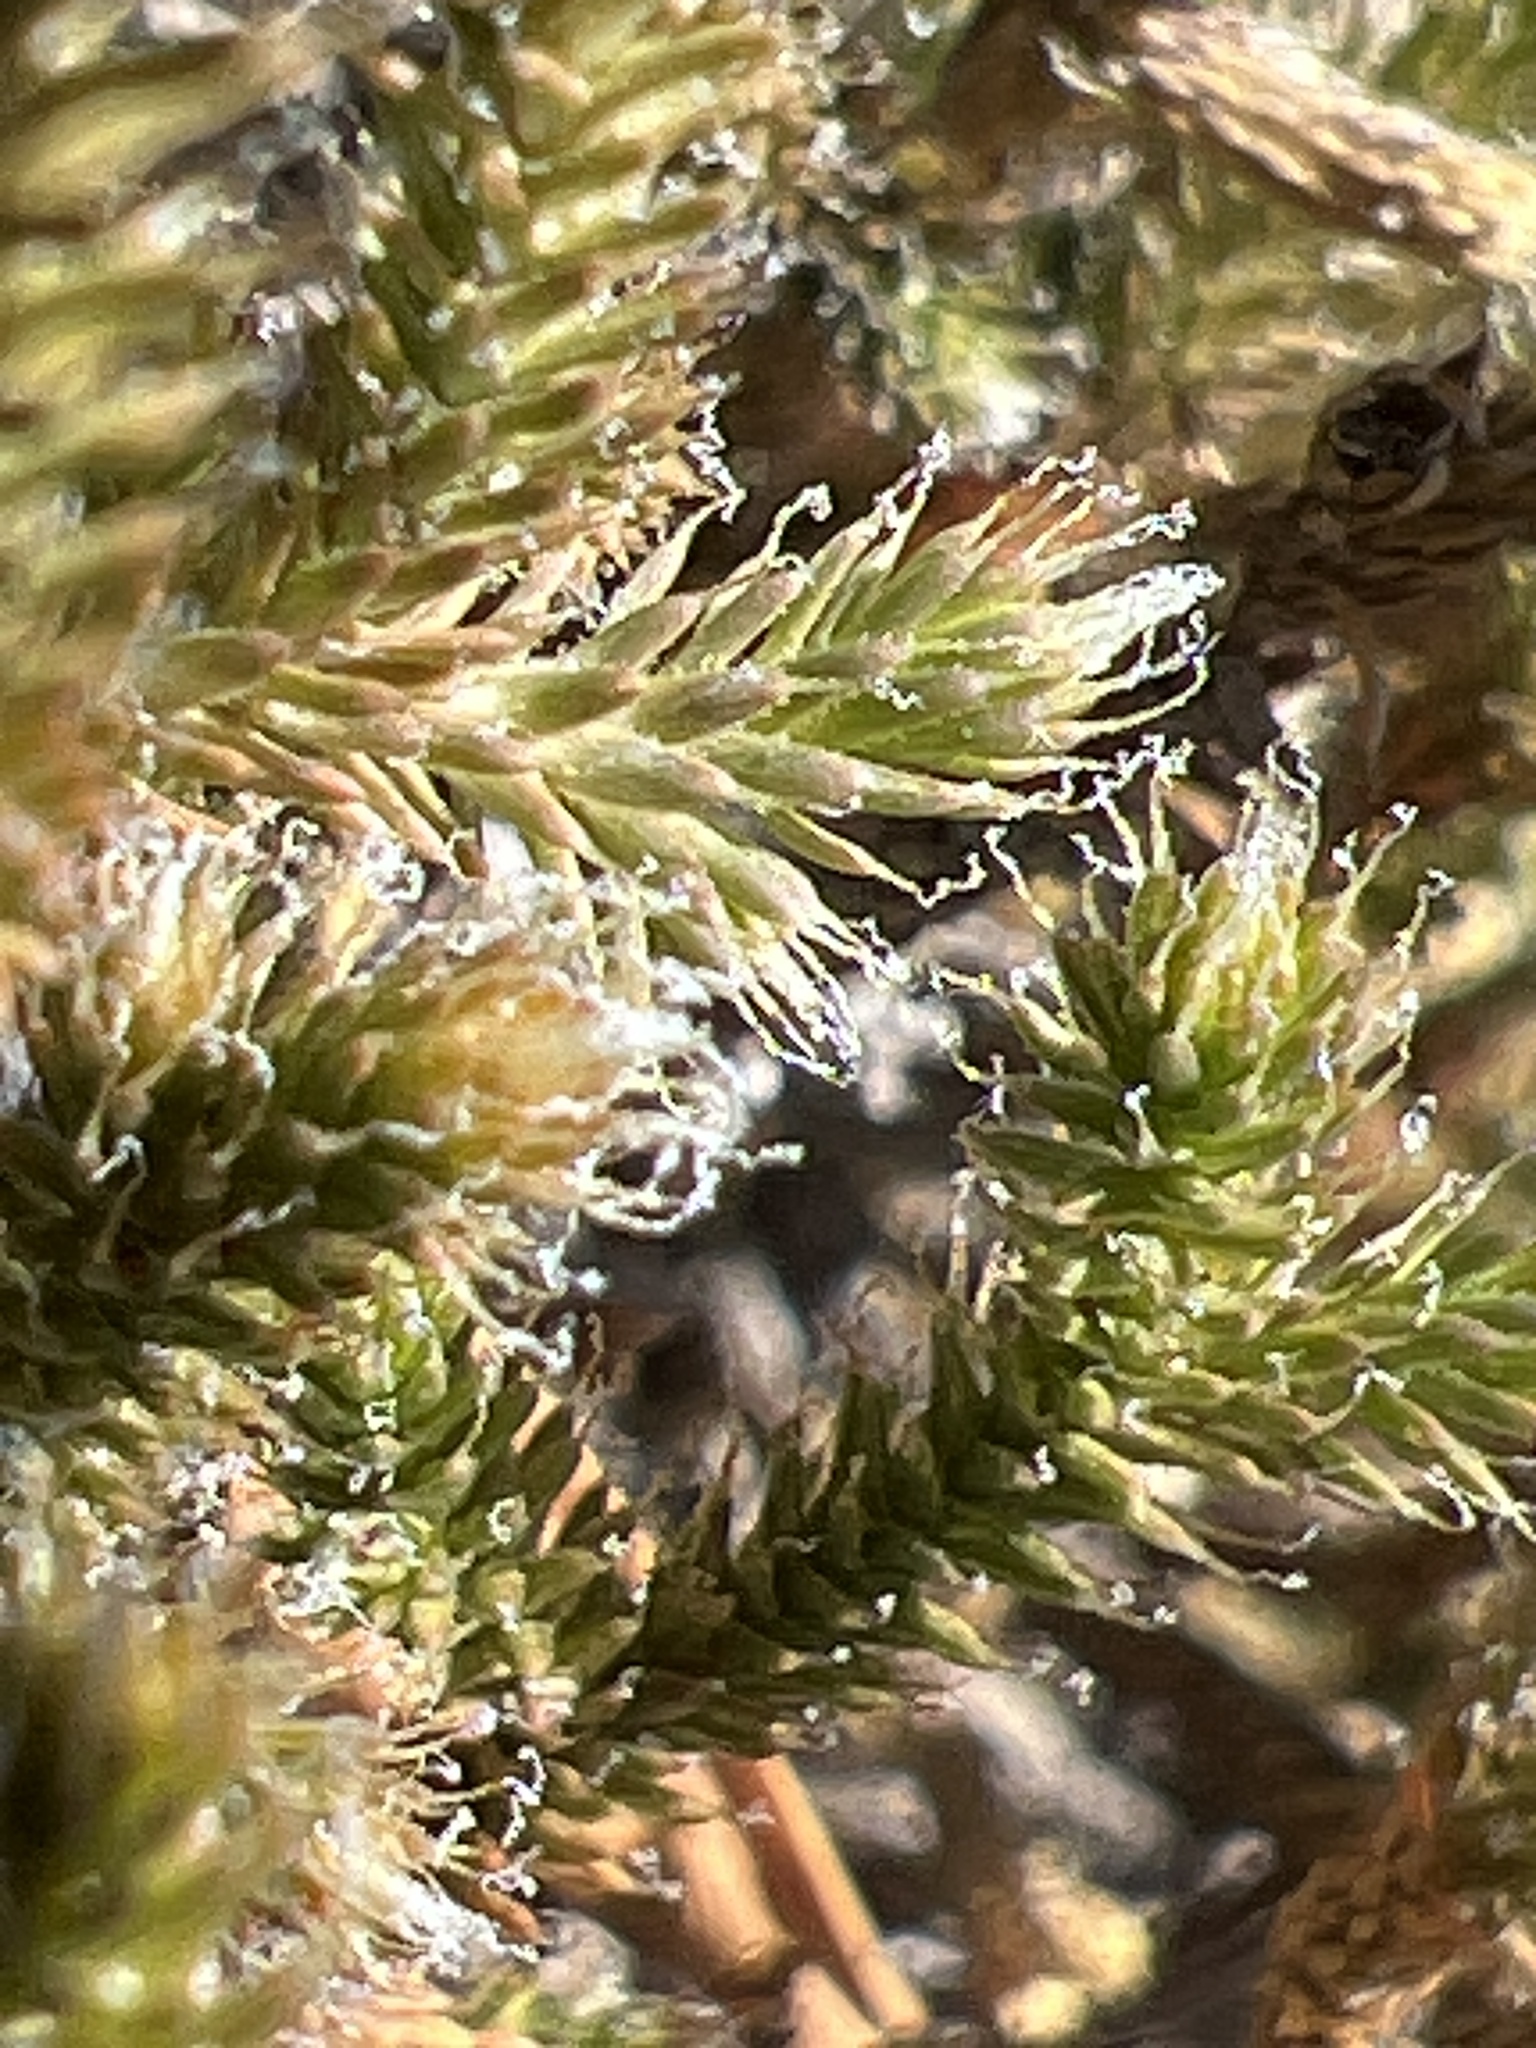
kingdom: Plantae
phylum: Tracheophyta
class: Lycopodiopsida
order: Selaginellales
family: Selaginellaceae
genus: Selaginella
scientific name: Selaginella tortipila
